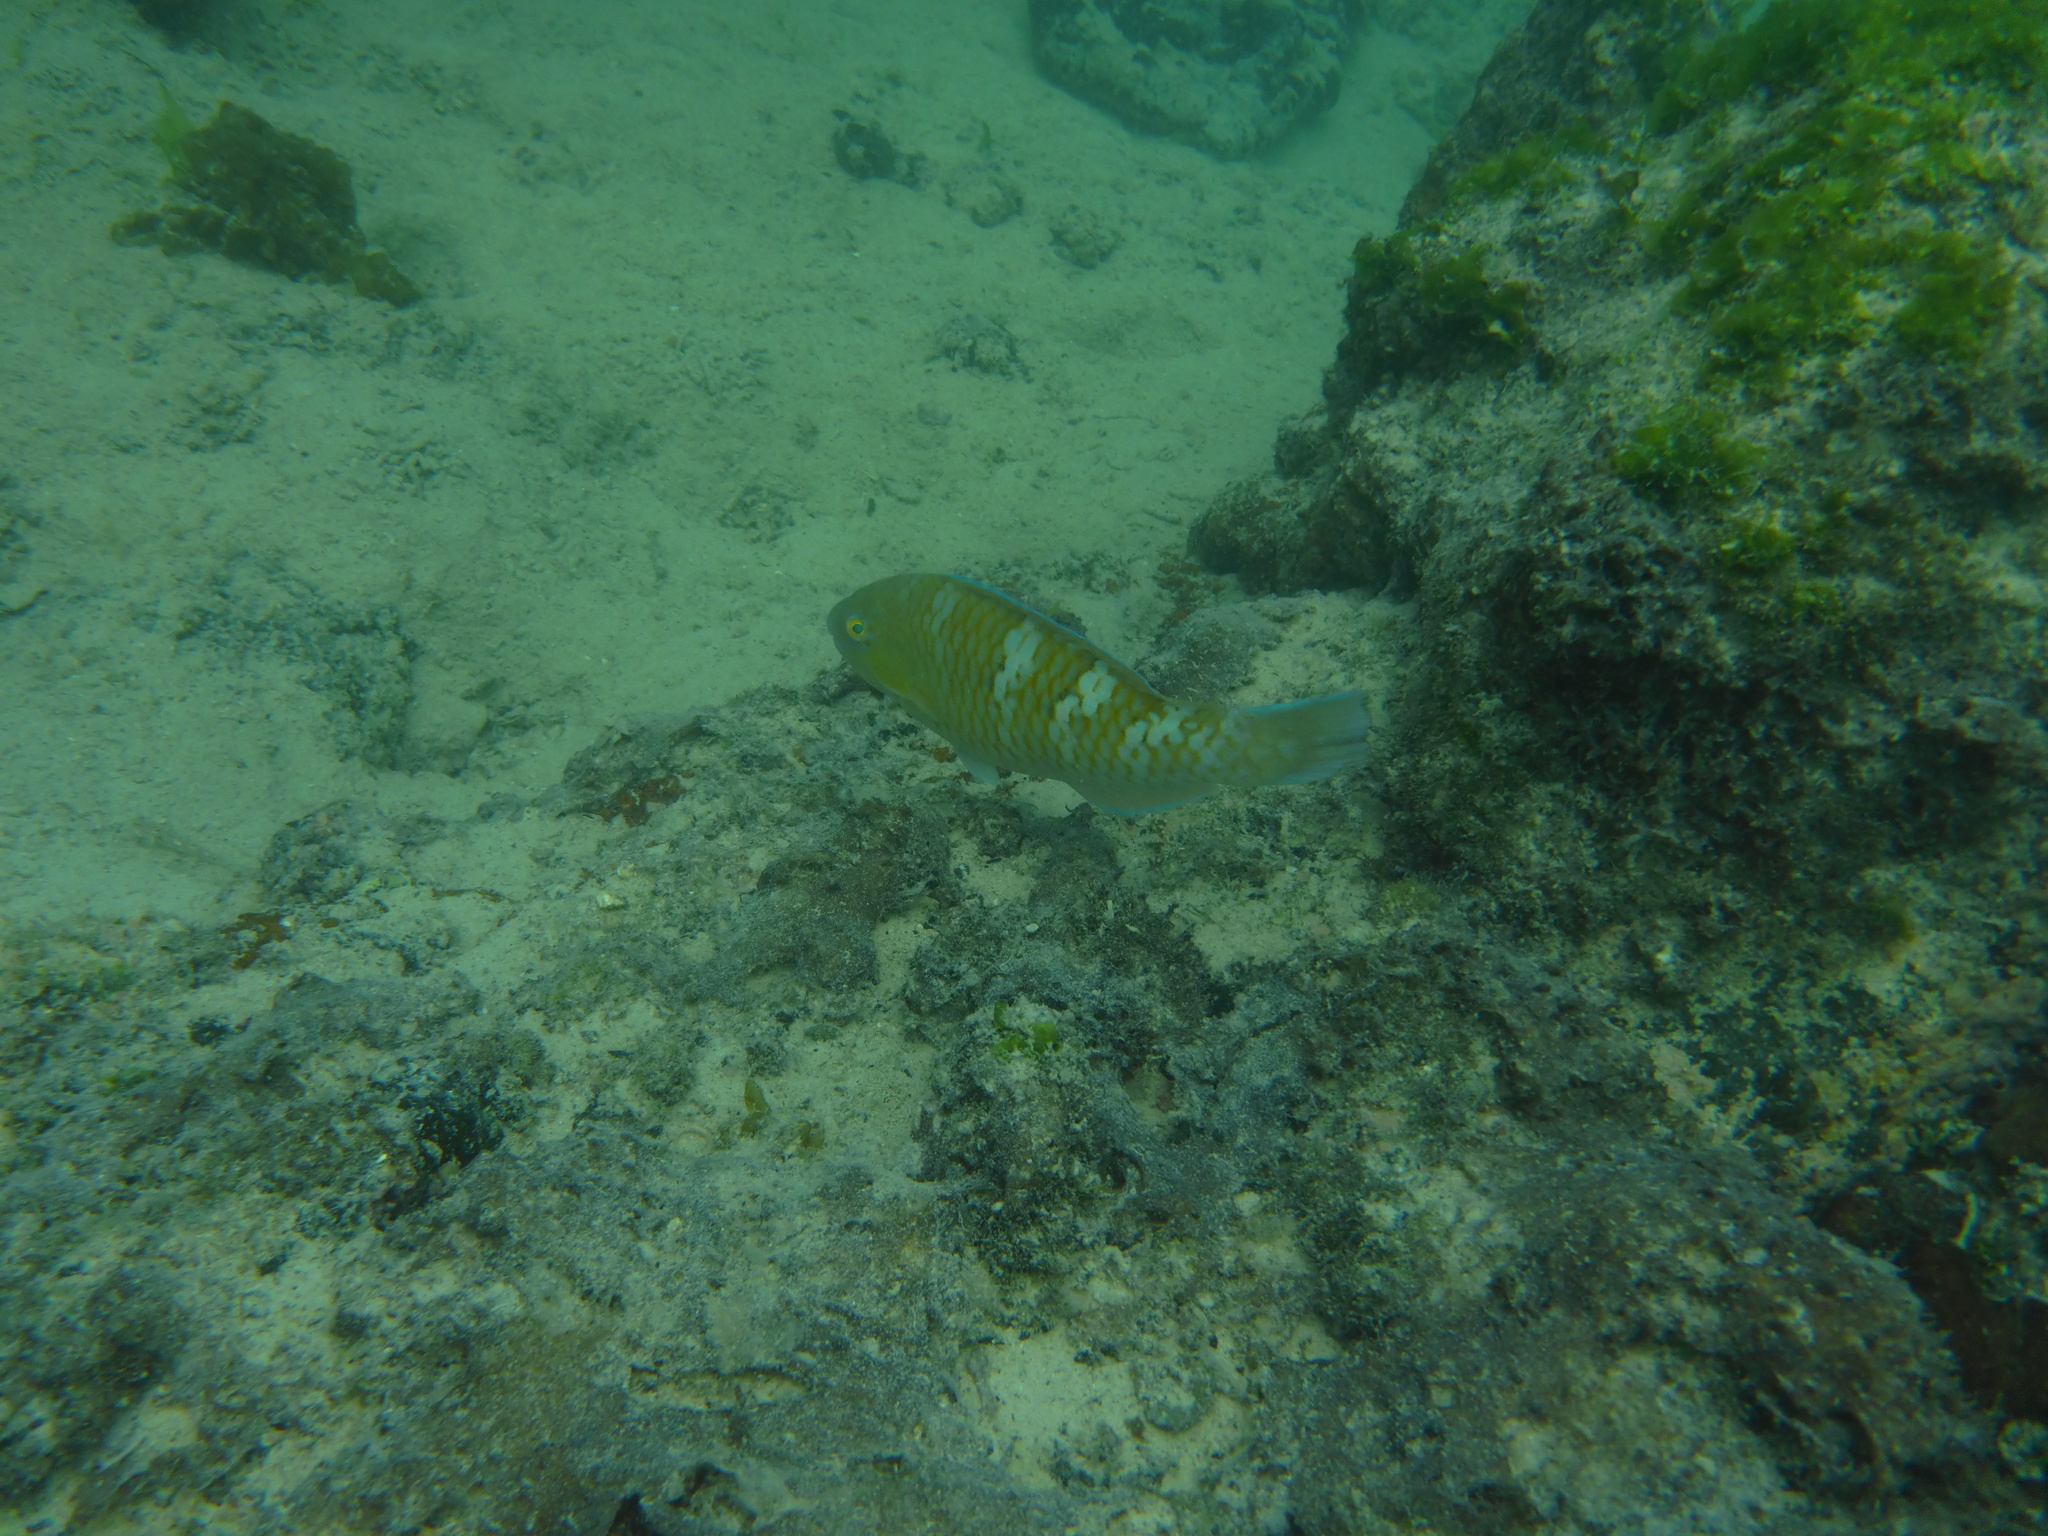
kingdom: Animalia
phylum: Chordata
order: Perciformes
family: Scaridae
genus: Scarus
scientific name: Scarus ghobban
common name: Blue-barred parrotfish
